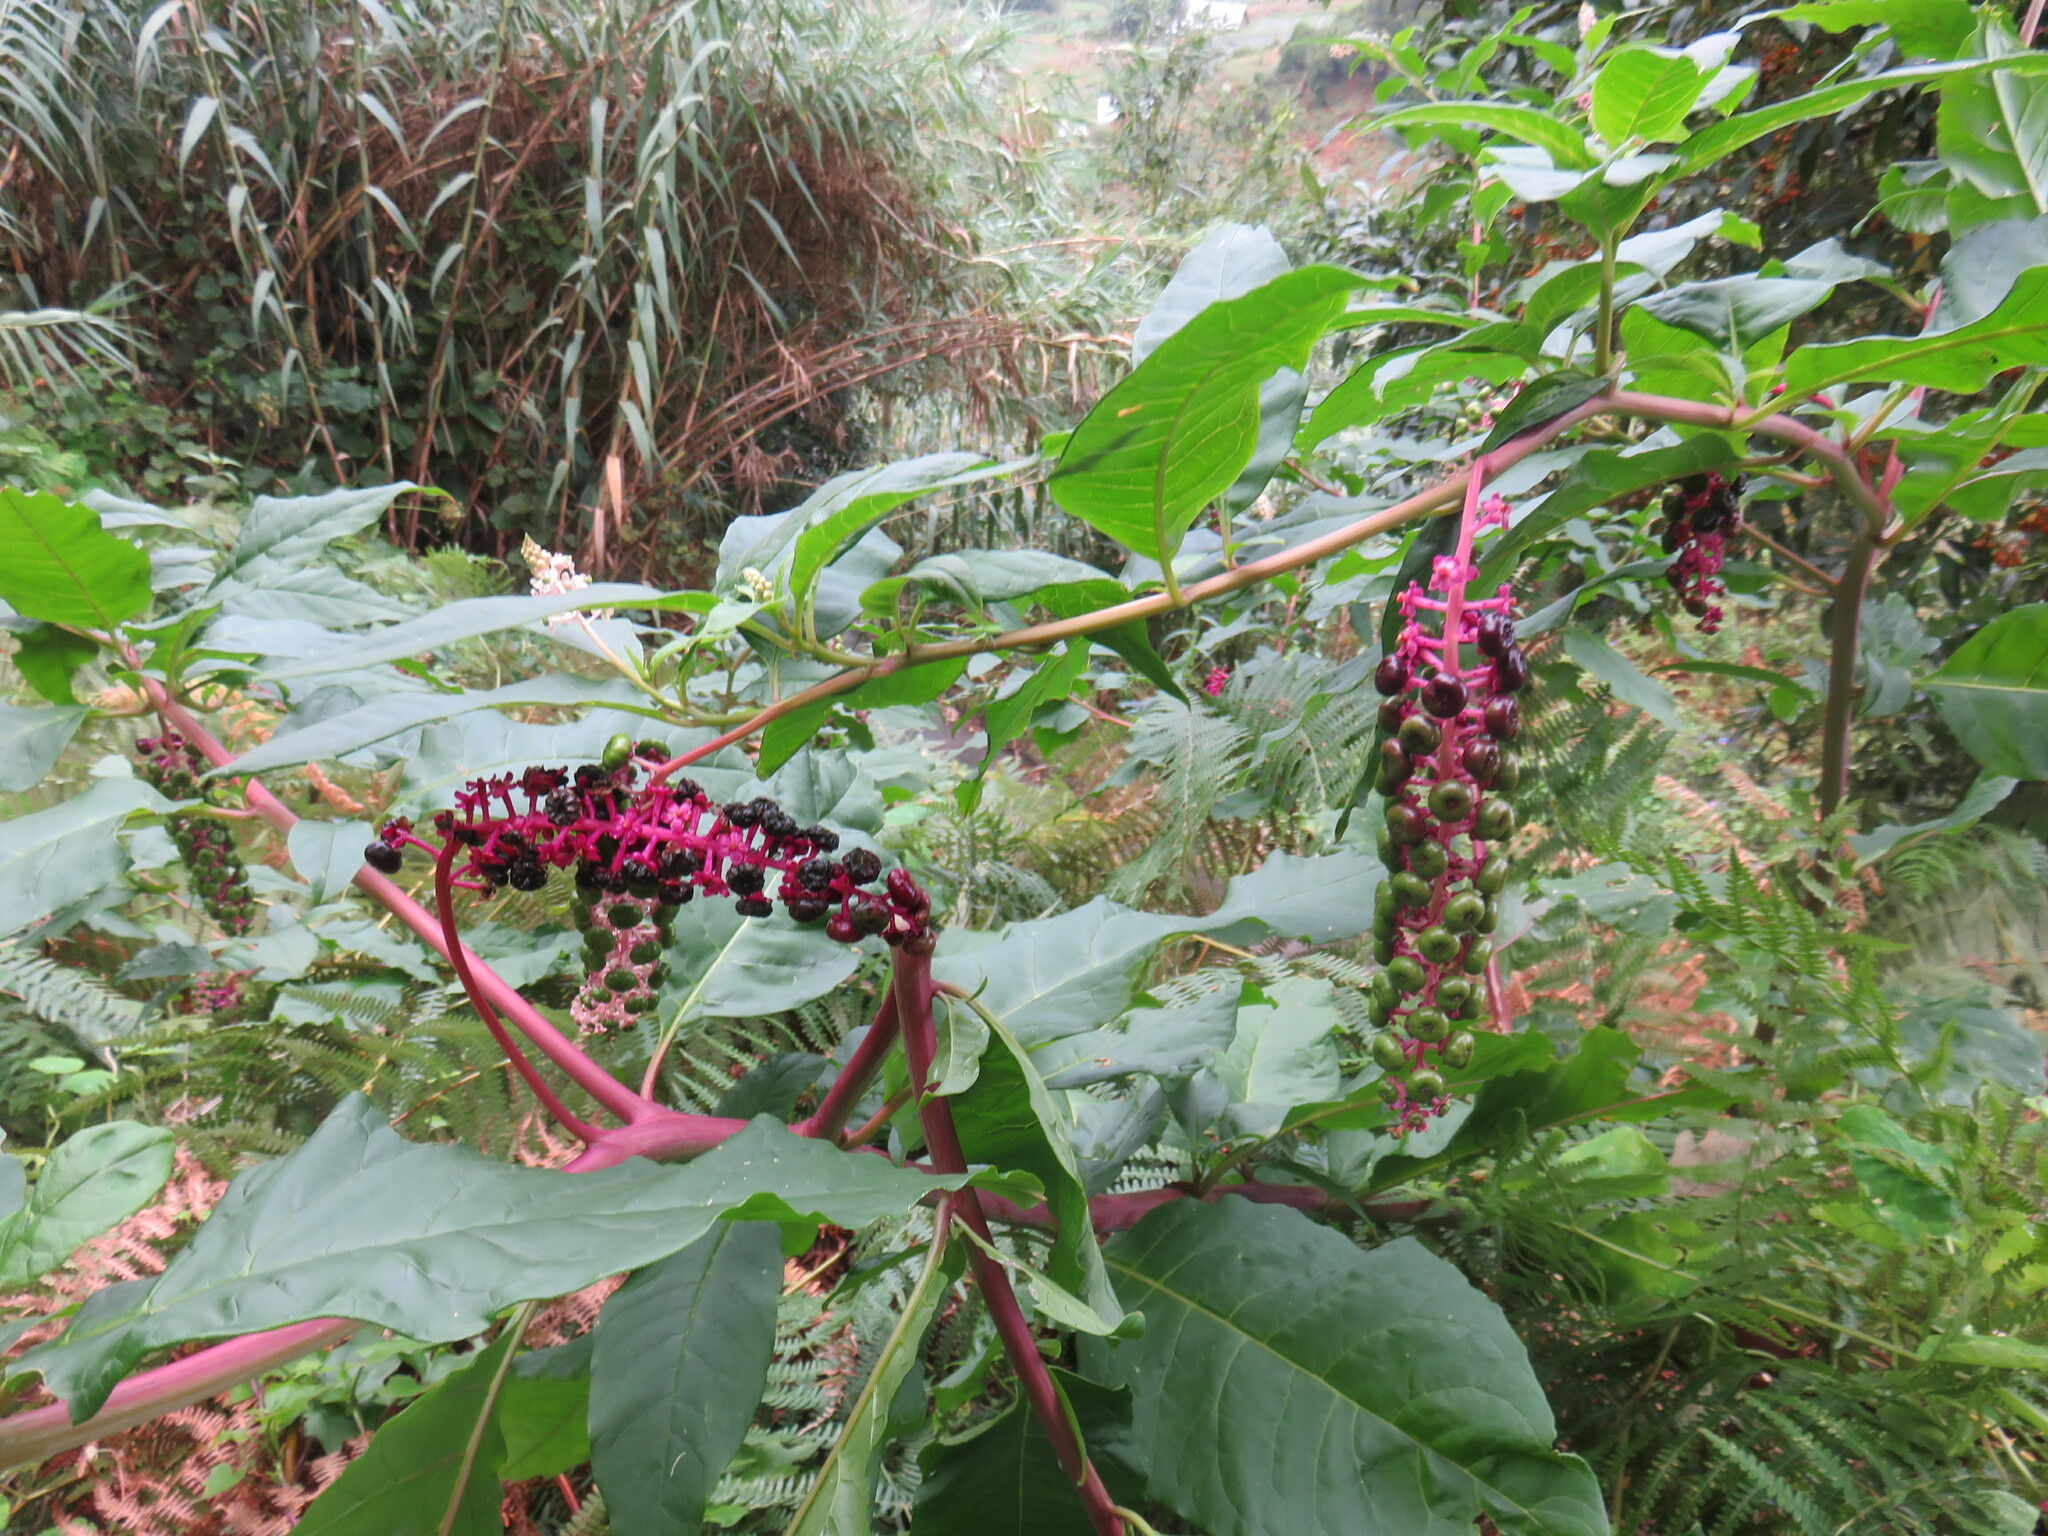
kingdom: Plantae
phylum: Tracheophyta
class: Magnoliopsida
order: Caryophyllales
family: Phytolaccaceae
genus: Phytolacca
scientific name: Phytolacca americana
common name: American pokeweed
